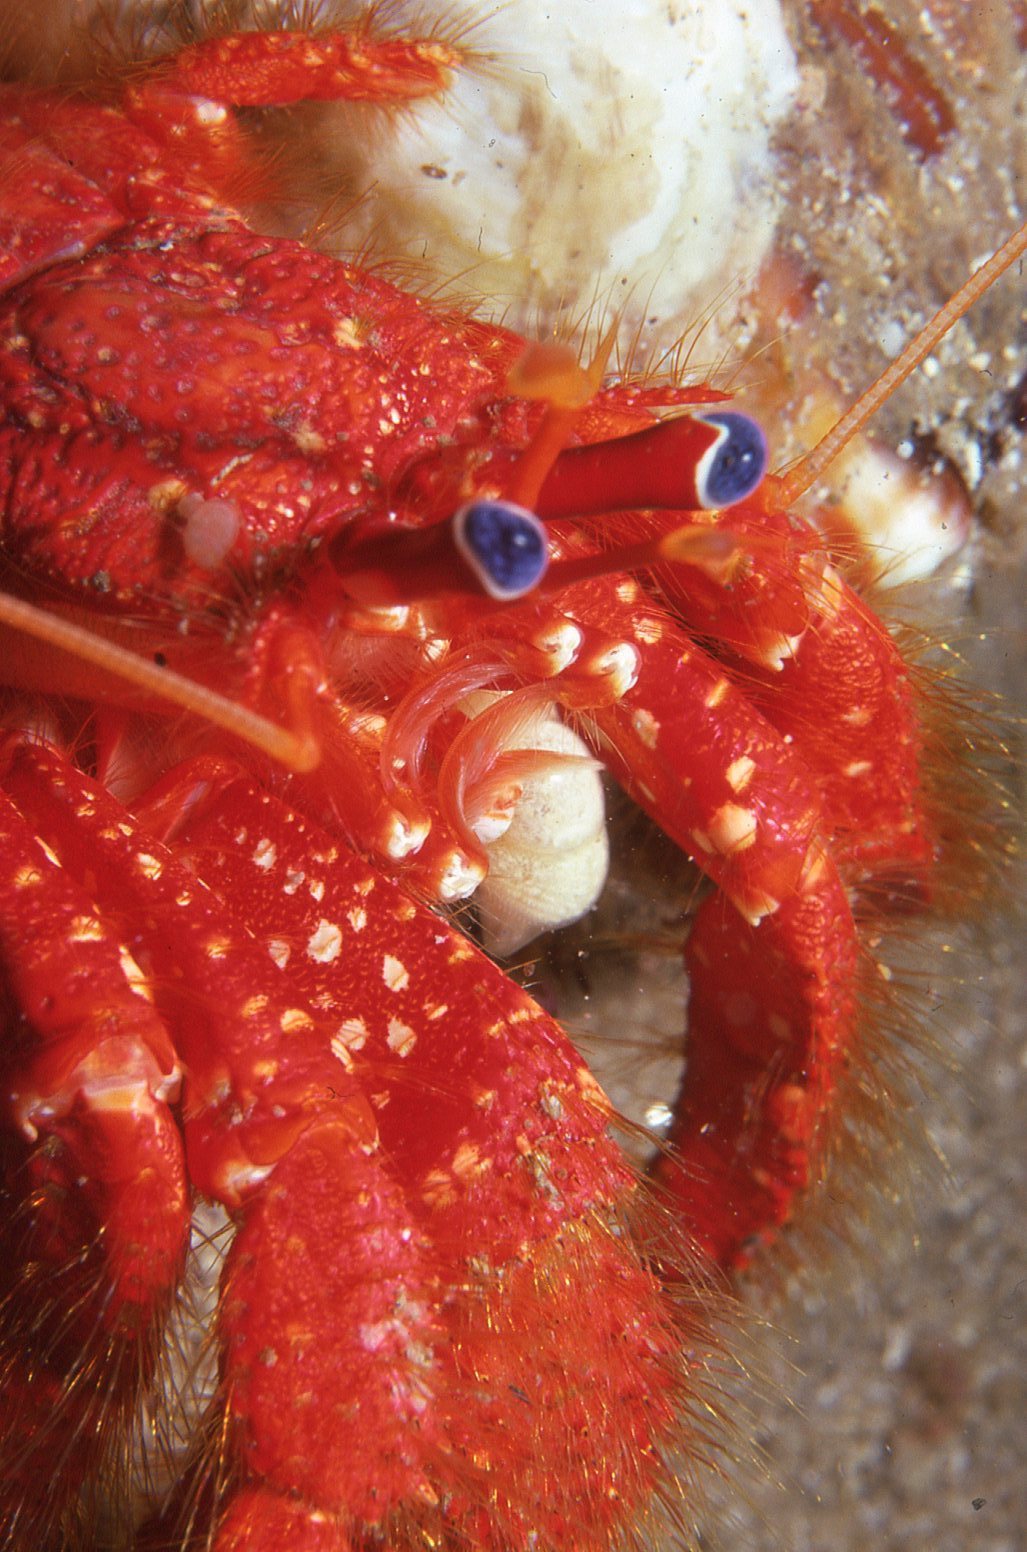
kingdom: Animalia
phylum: Arthropoda
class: Malacostraca
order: Decapoda
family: Diogenidae
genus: Strigopagurus
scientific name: Strigopagurus strigimanus
